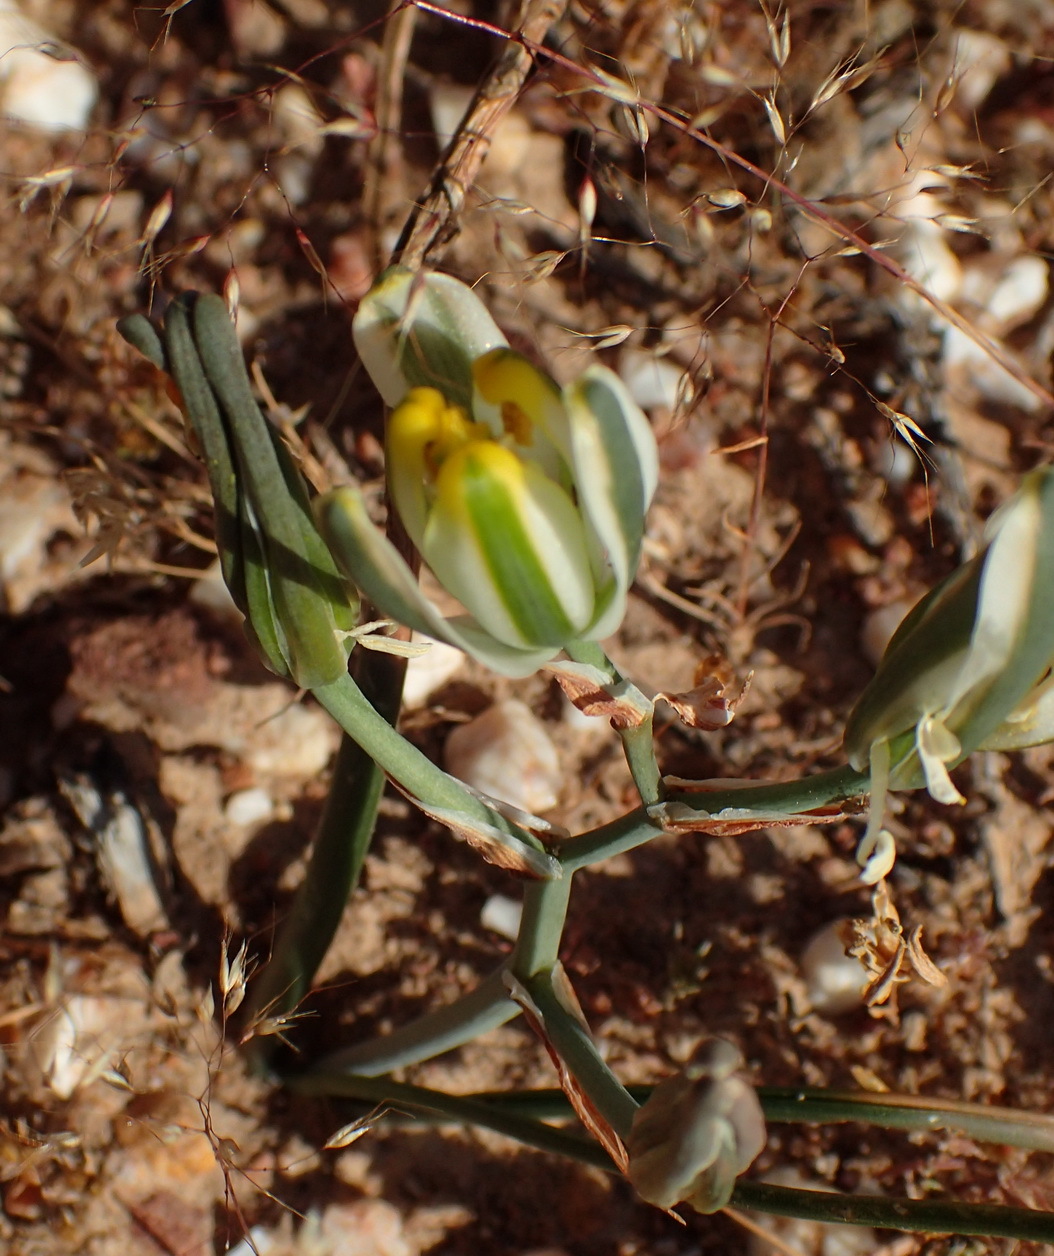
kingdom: Plantae
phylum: Tracheophyta
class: Liliopsida
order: Asparagales
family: Asparagaceae
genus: Albuca
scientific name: Albuca longipes
